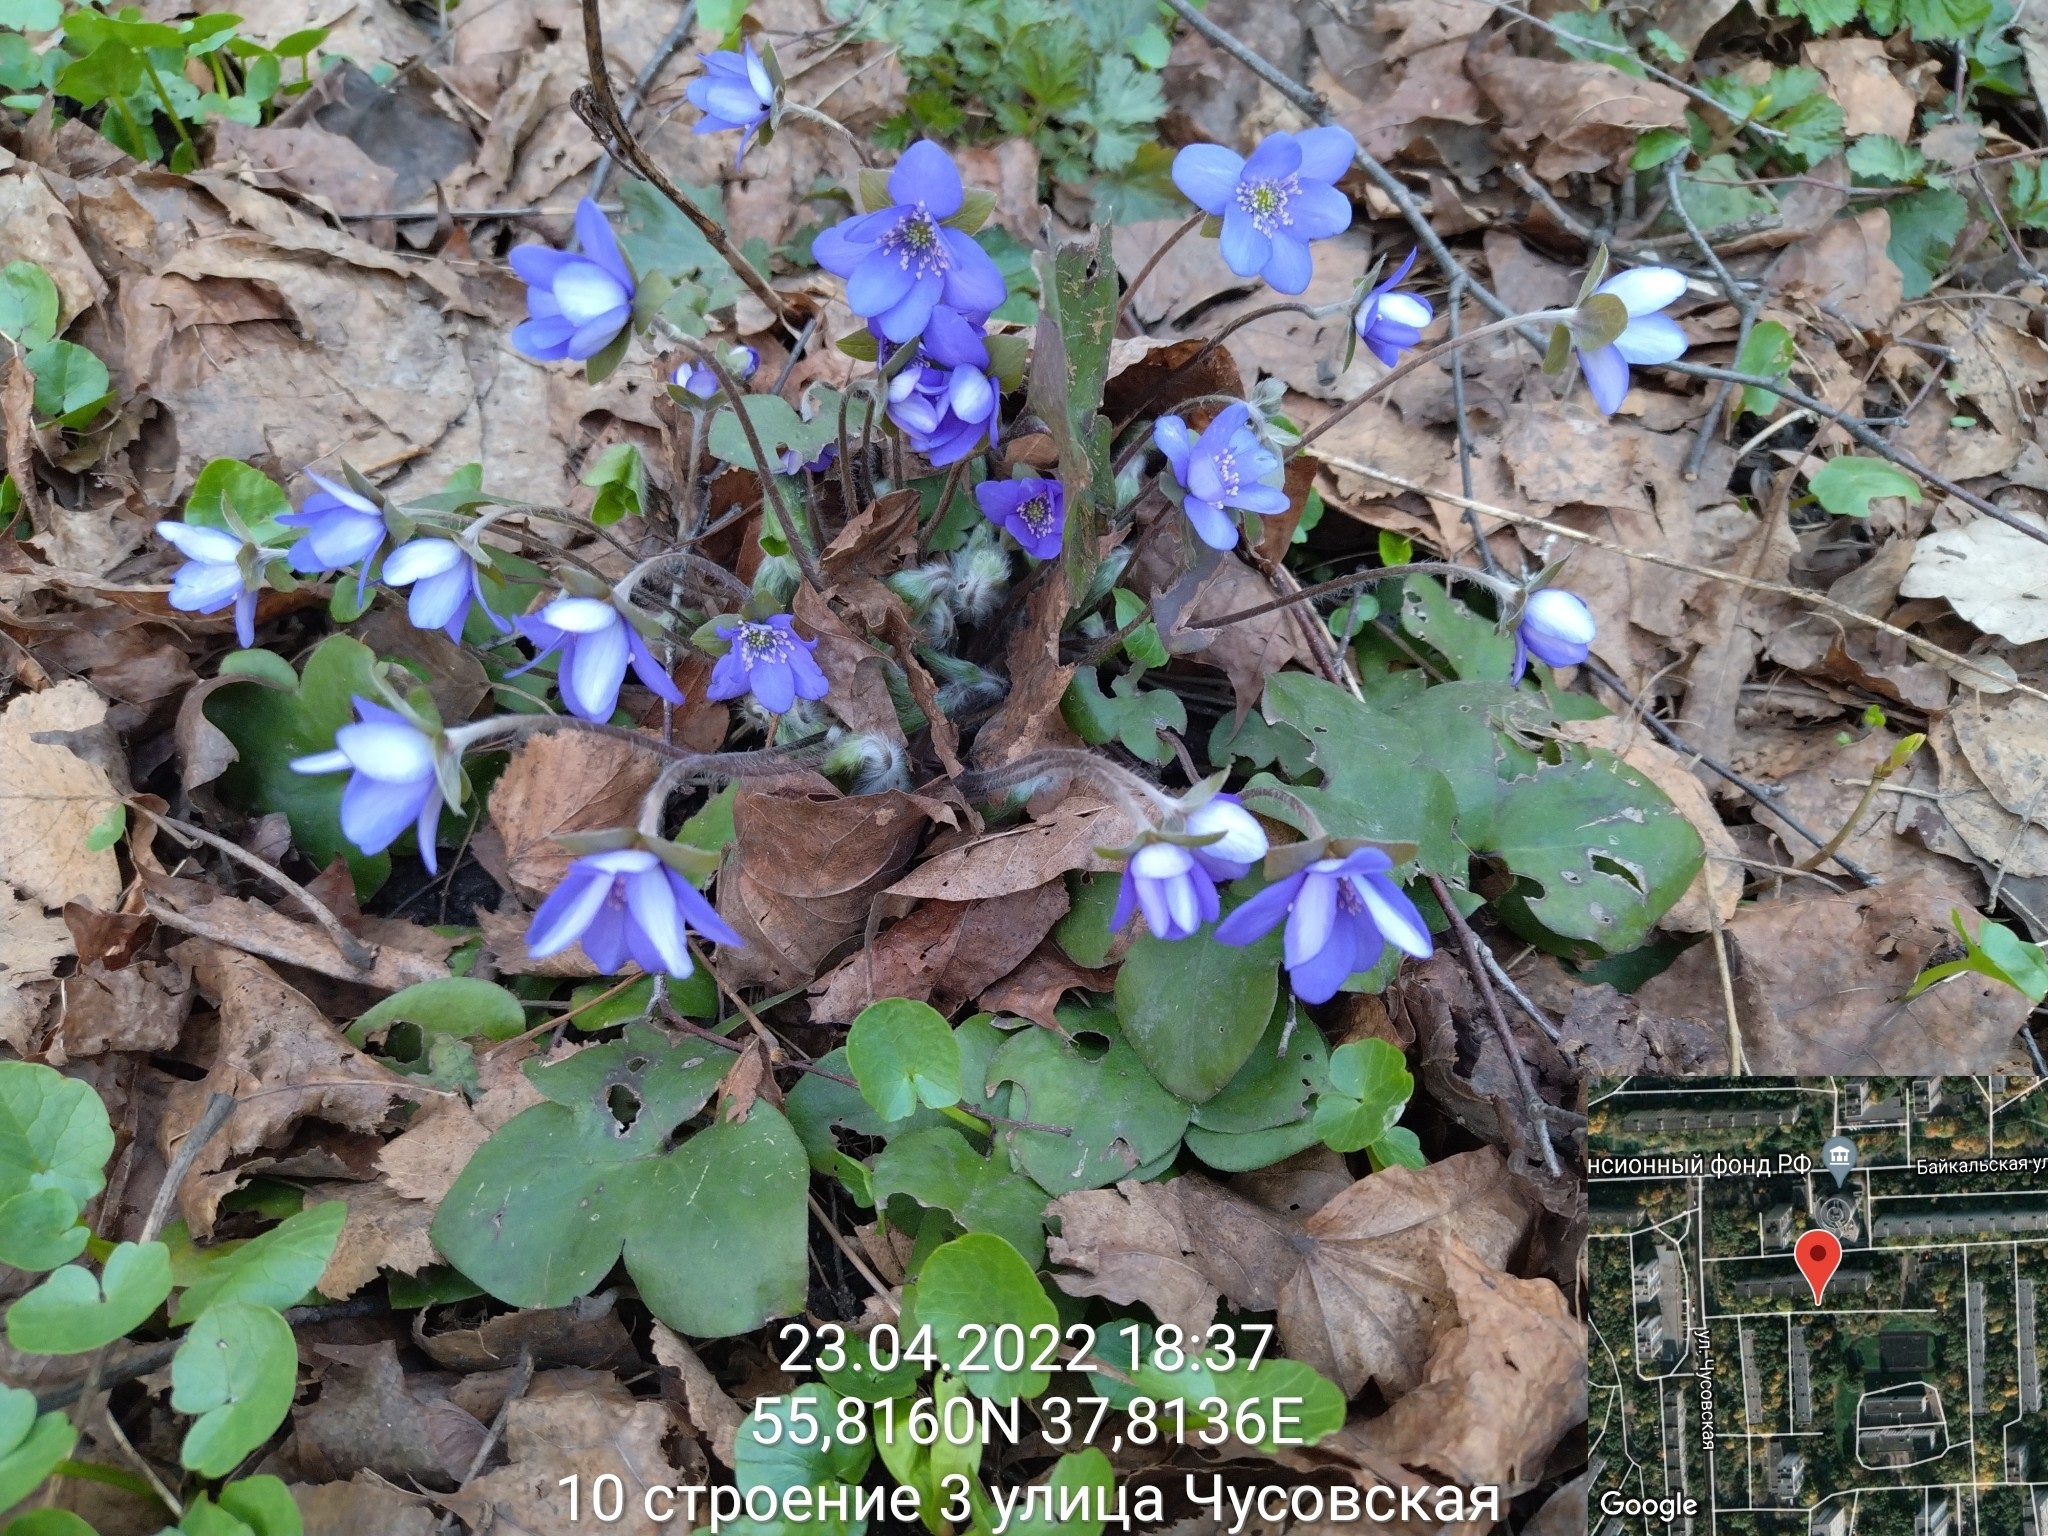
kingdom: Plantae
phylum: Tracheophyta
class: Magnoliopsida
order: Ranunculales
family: Ranunculaceae
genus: Hepatica
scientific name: Hepatica nobilis
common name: Liverleaf
